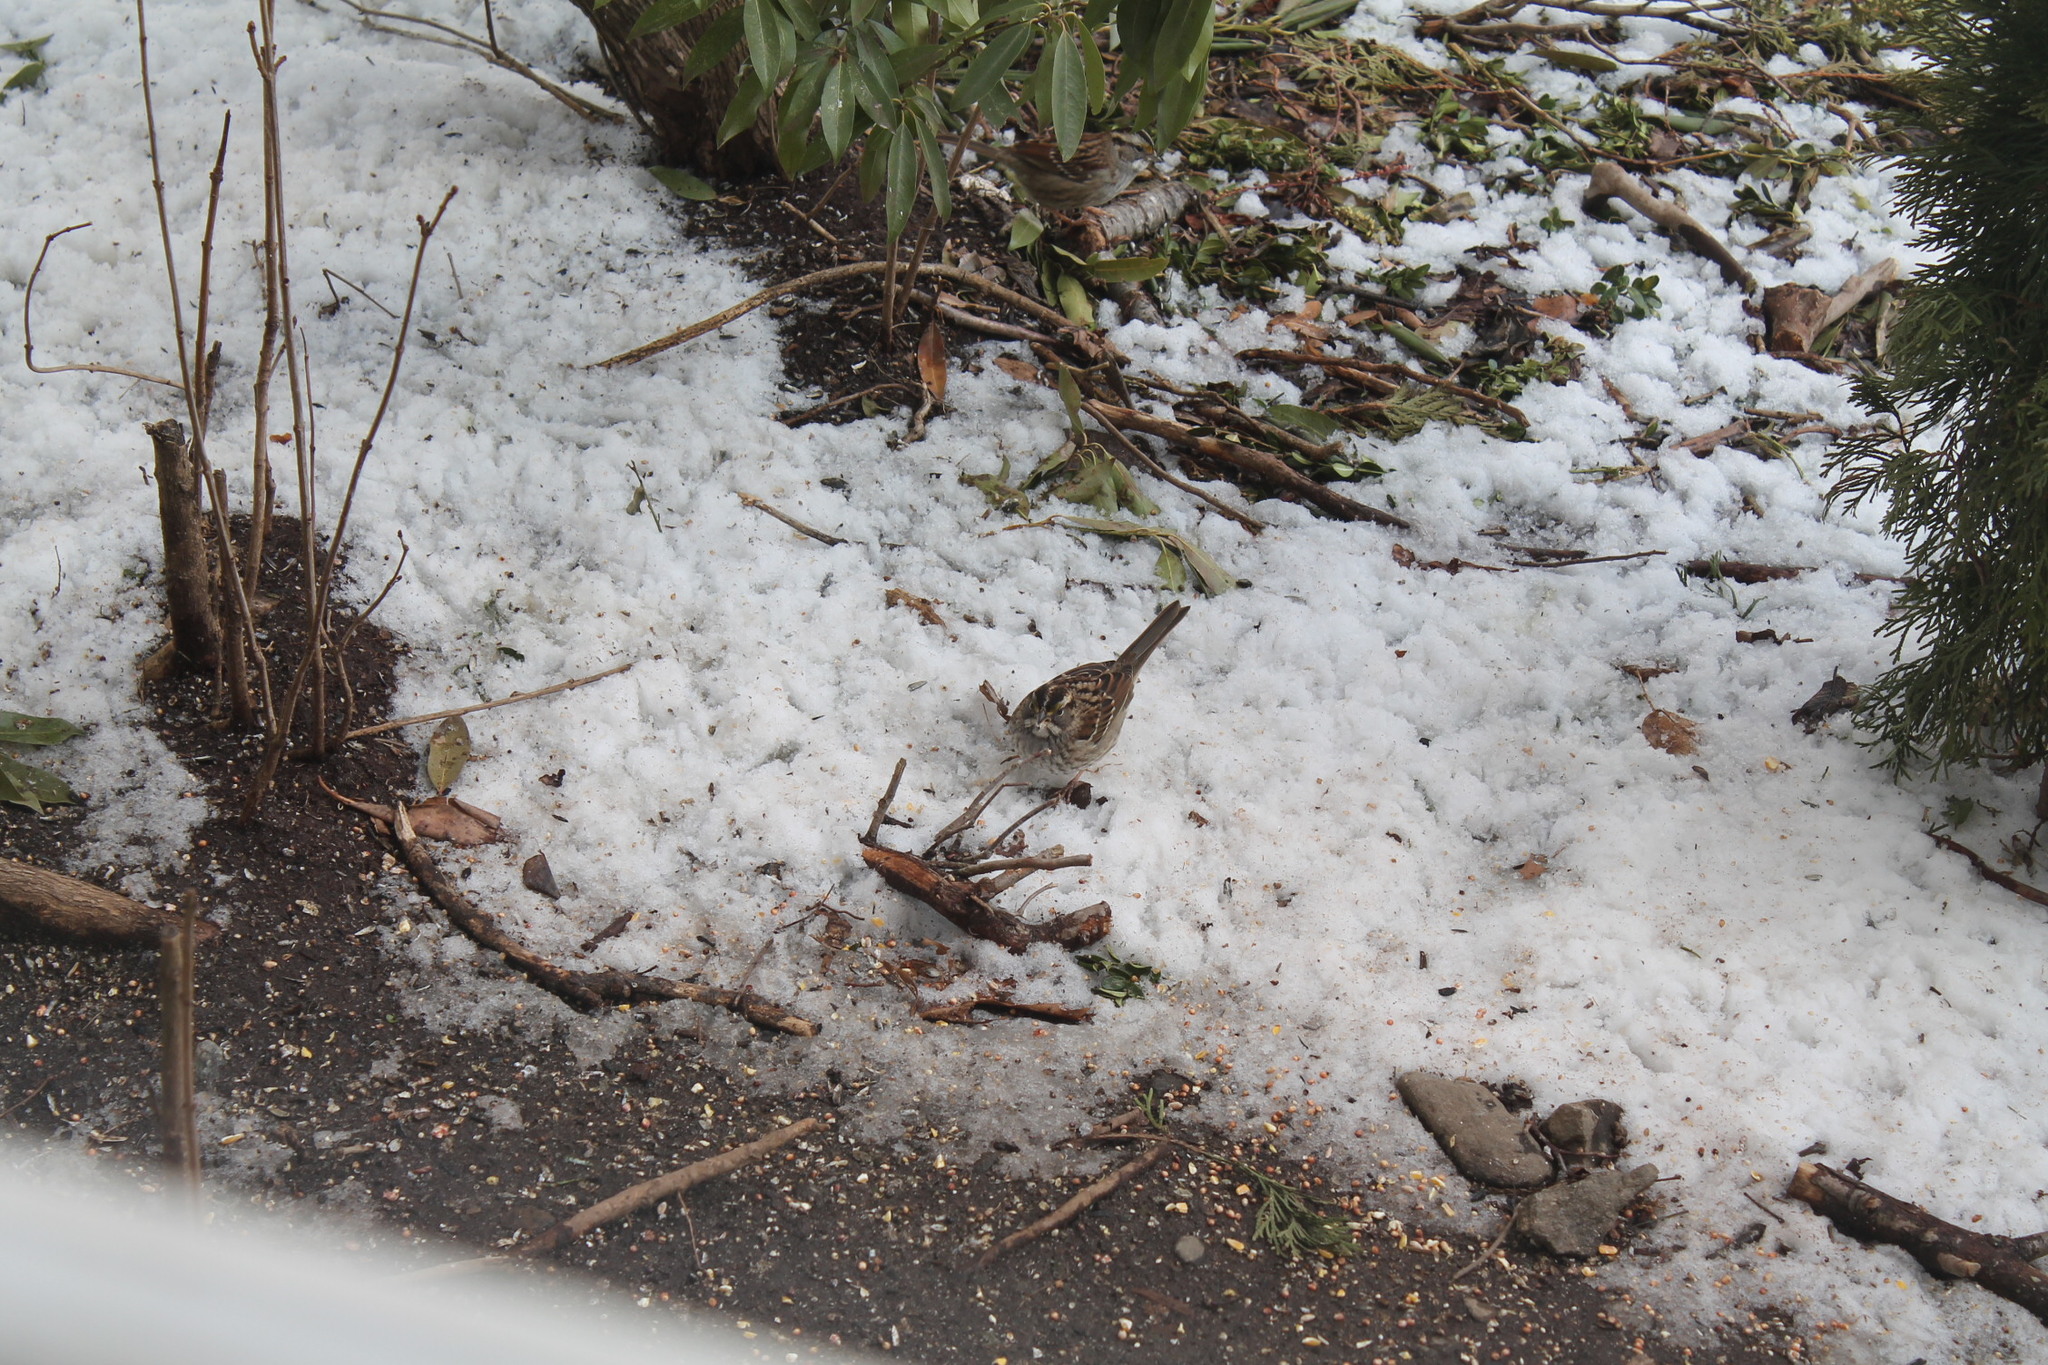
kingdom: Animalia
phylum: Chordata
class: Aves
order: Passeriformes
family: Passerellidae
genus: Zonotrichia
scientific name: Zonotrichia albicollis
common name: White-throated sparrow
